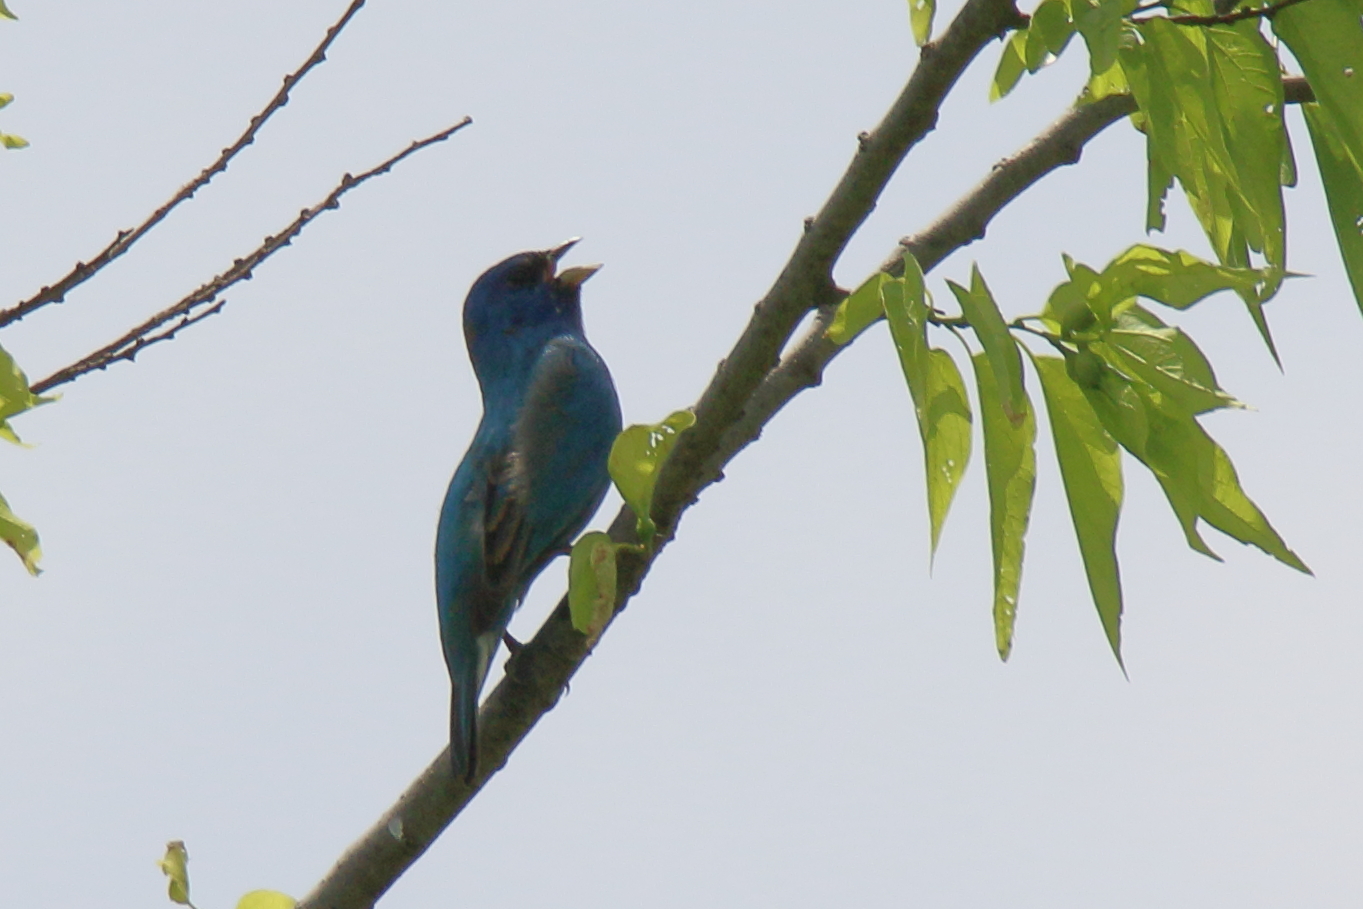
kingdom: Animalia
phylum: Chordata
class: Aves
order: Passeriformes
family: Cardinalidae
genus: Passerina
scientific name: Passerina cyanea
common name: Indigo bunting
